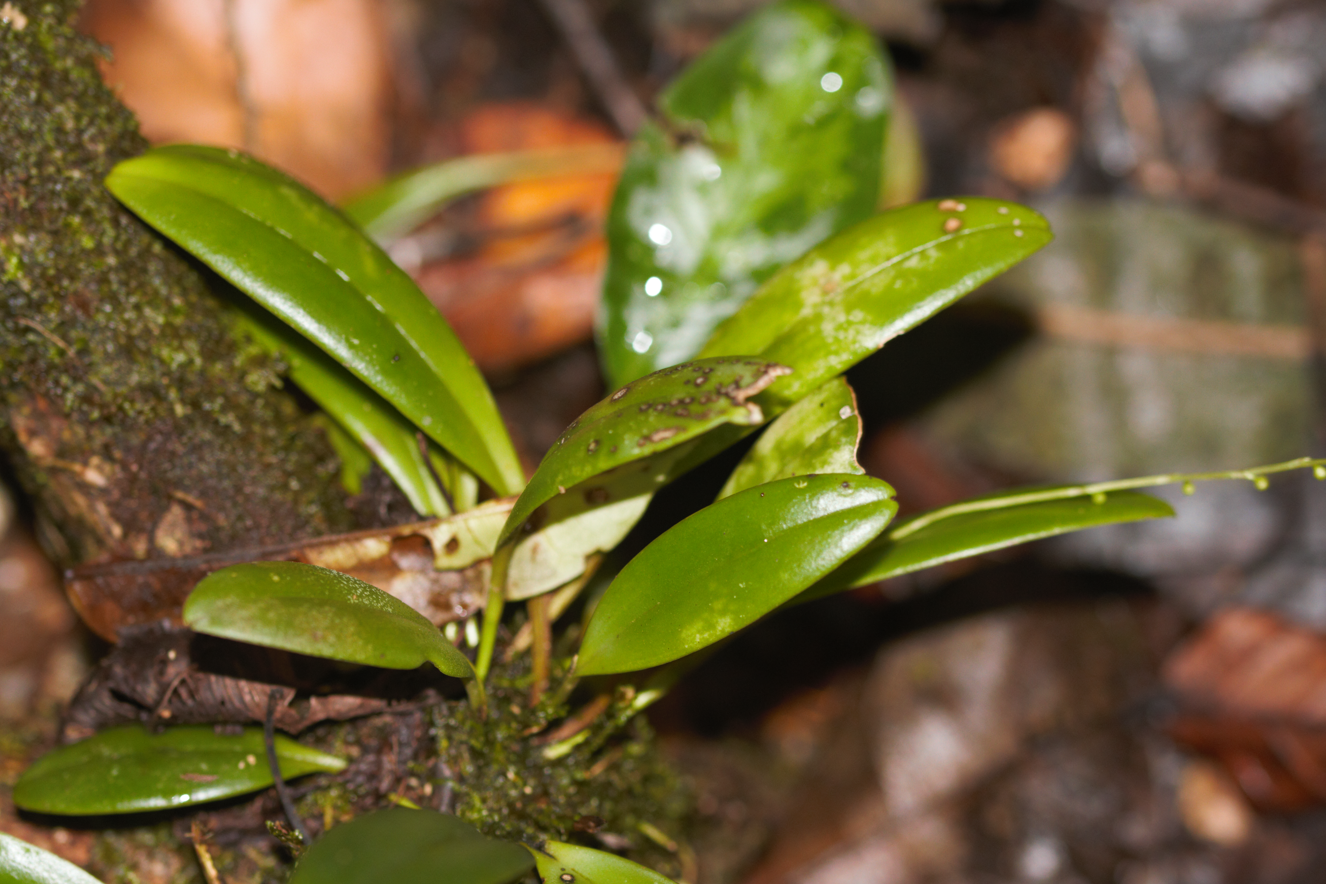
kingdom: Plantae
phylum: Tracheophyta
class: Liliopsida
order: Asparagales
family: Orchidaceae
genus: Stelis
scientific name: Stelis
